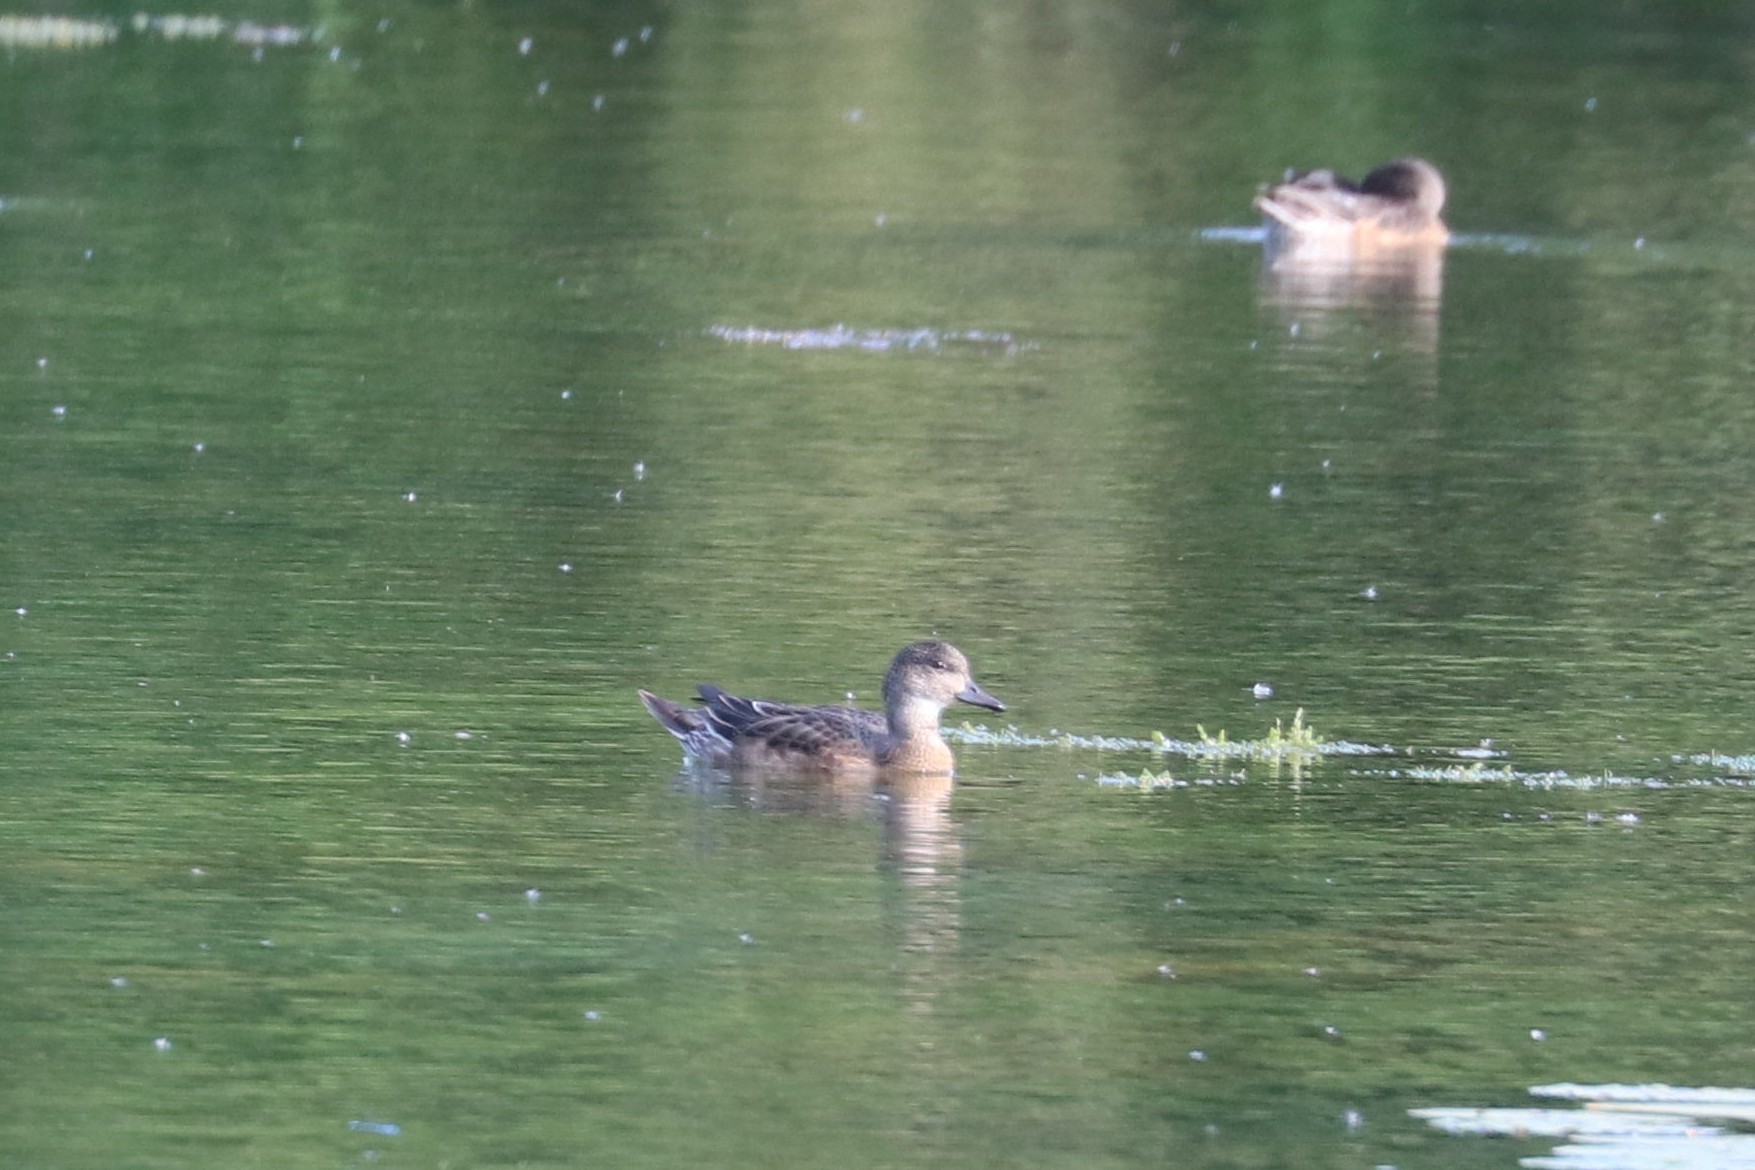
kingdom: Animalia
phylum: Chordata
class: Aves
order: Anseriformes
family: Anatidae
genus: Mareca
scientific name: Mareca penelope
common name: Eurasian wigeon
